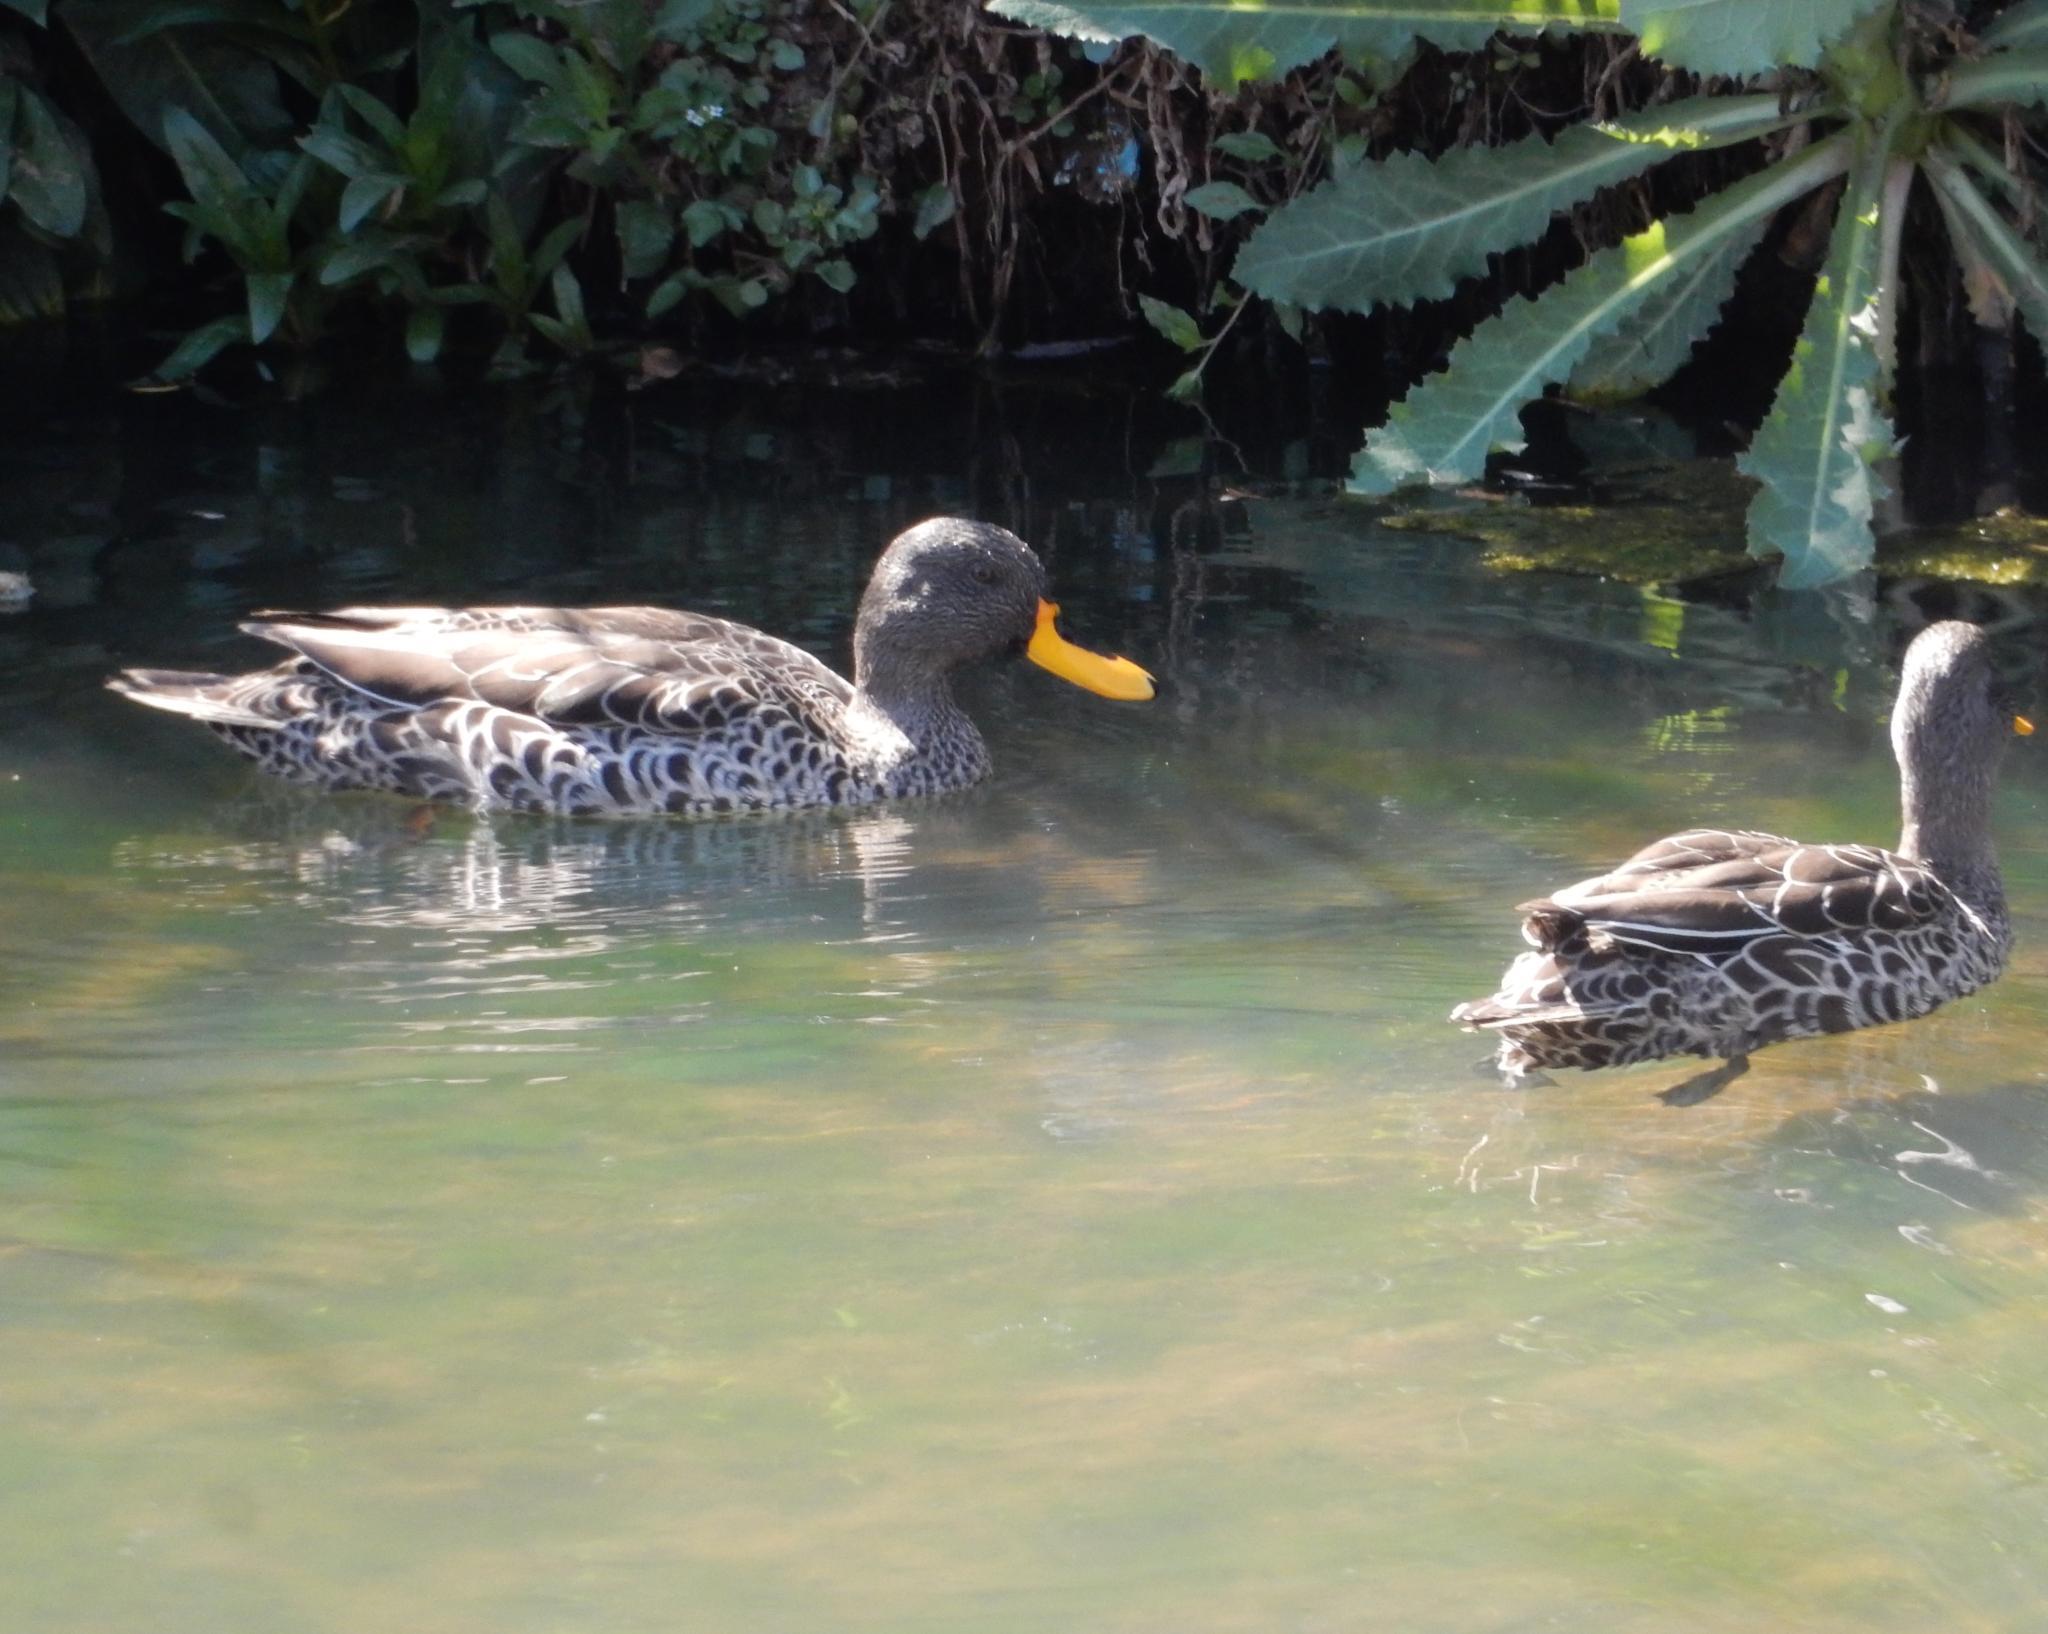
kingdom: Animalia
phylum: Chordata
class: Aves
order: Anseriformes
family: Anatidae
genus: Anas
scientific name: Anas undulata
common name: Yellow-billed duck
